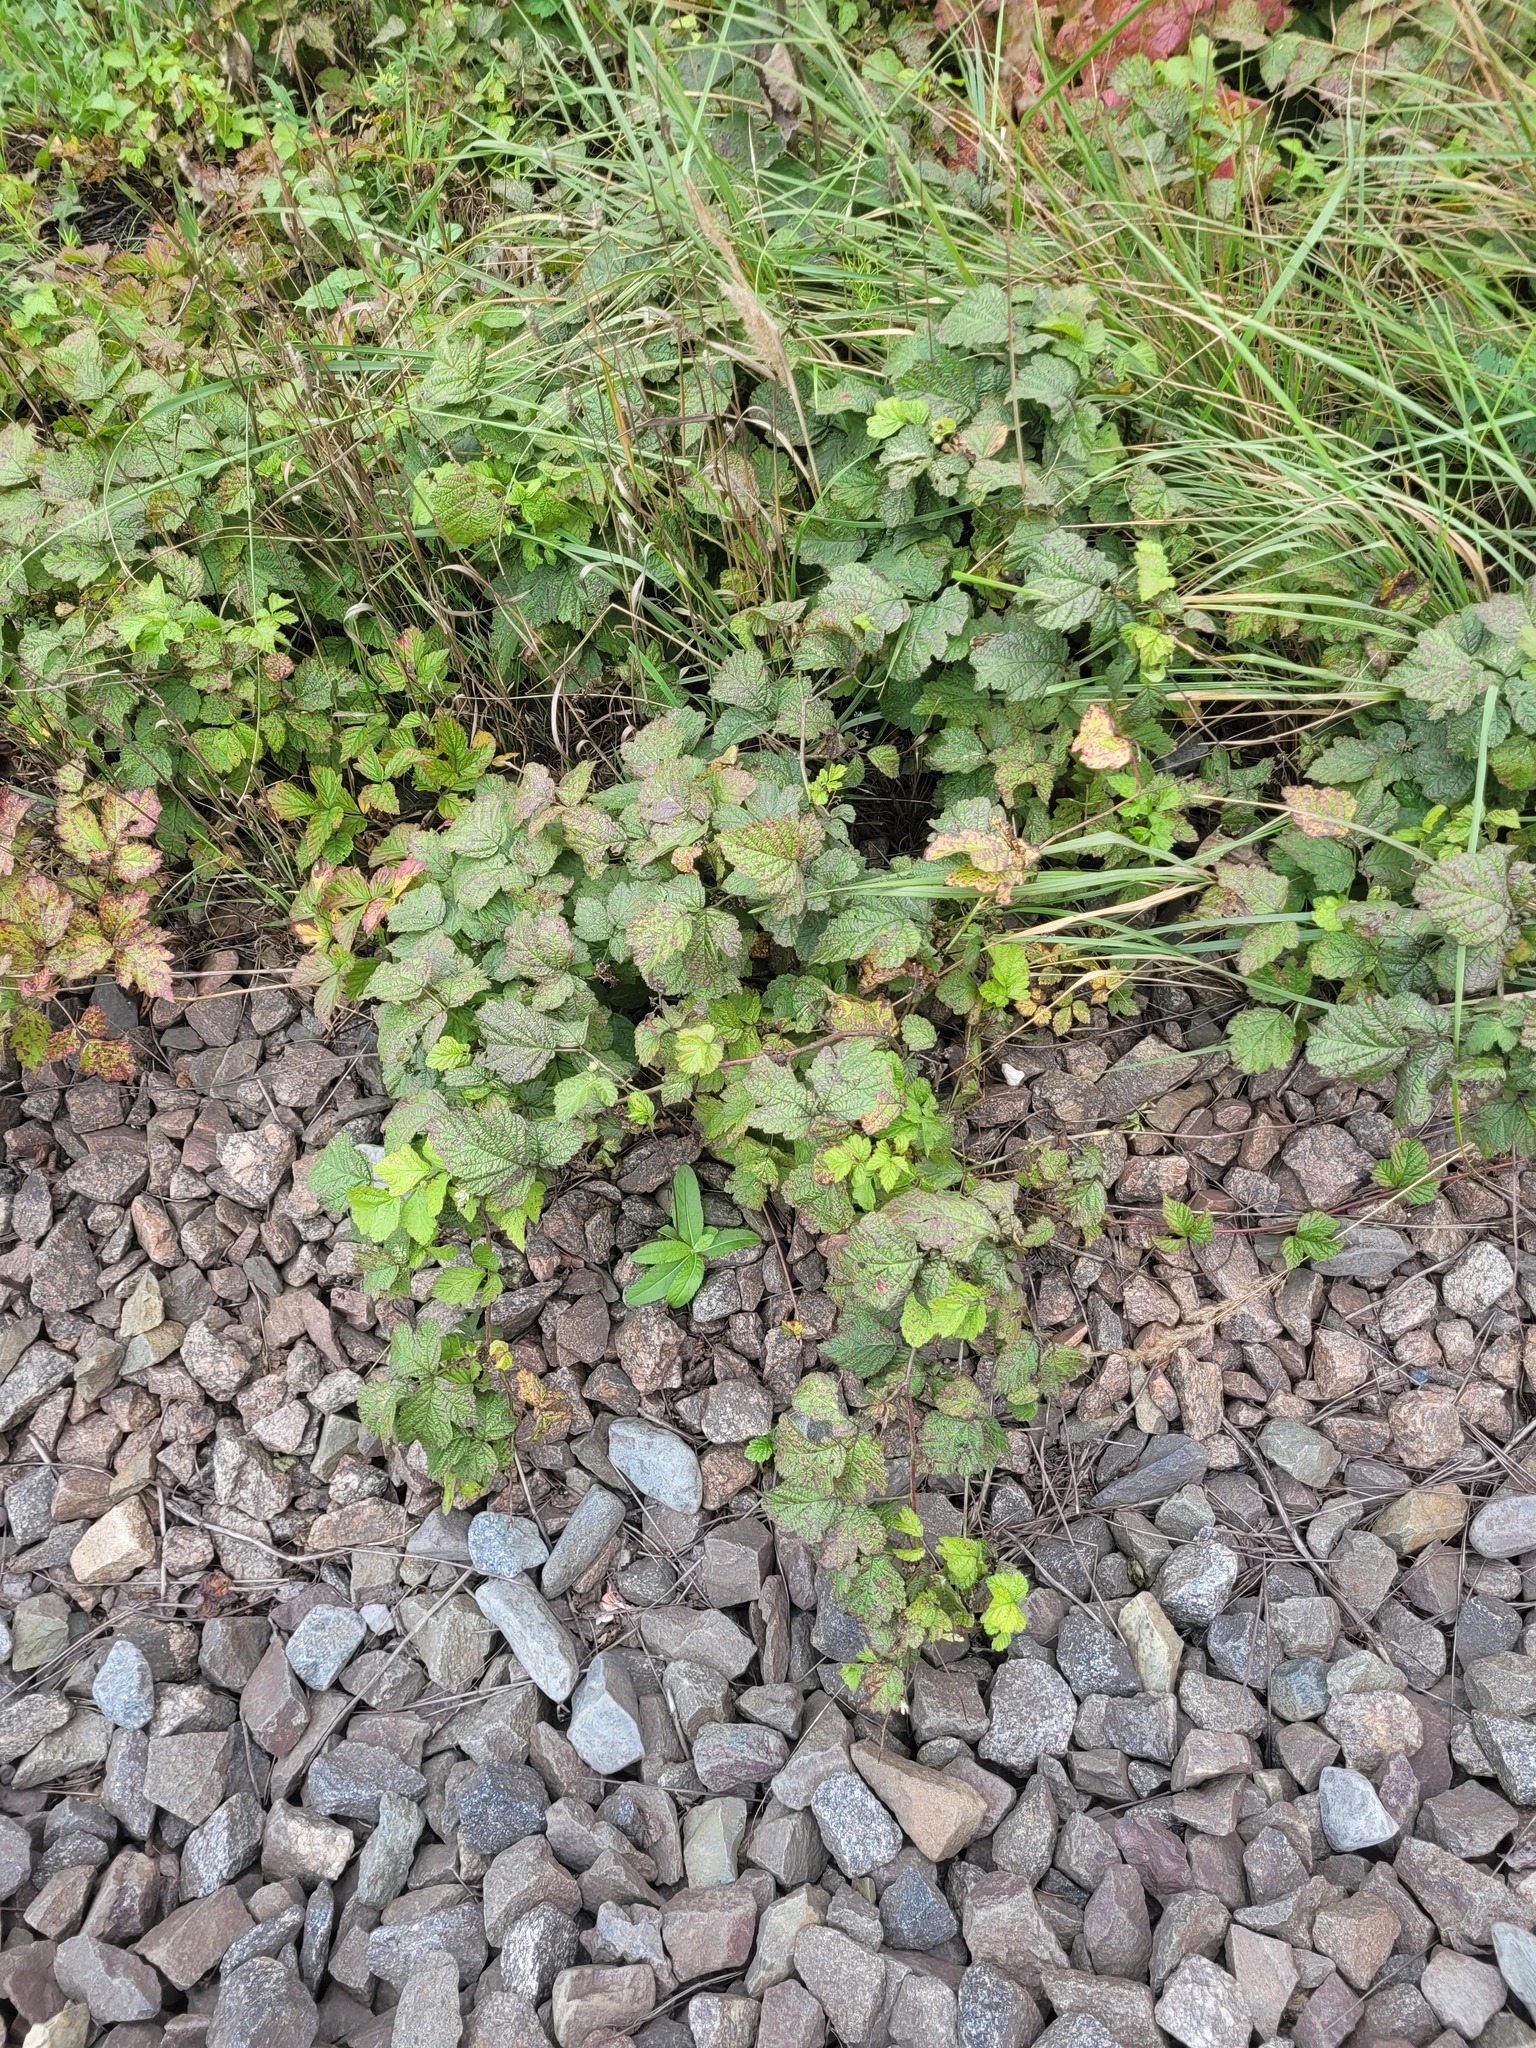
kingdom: Plantae
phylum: Tracheophyta
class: Magnoliopsida
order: Rosales
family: Rosaceae
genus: Rubus
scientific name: Rubus caesius
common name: Dewberry
